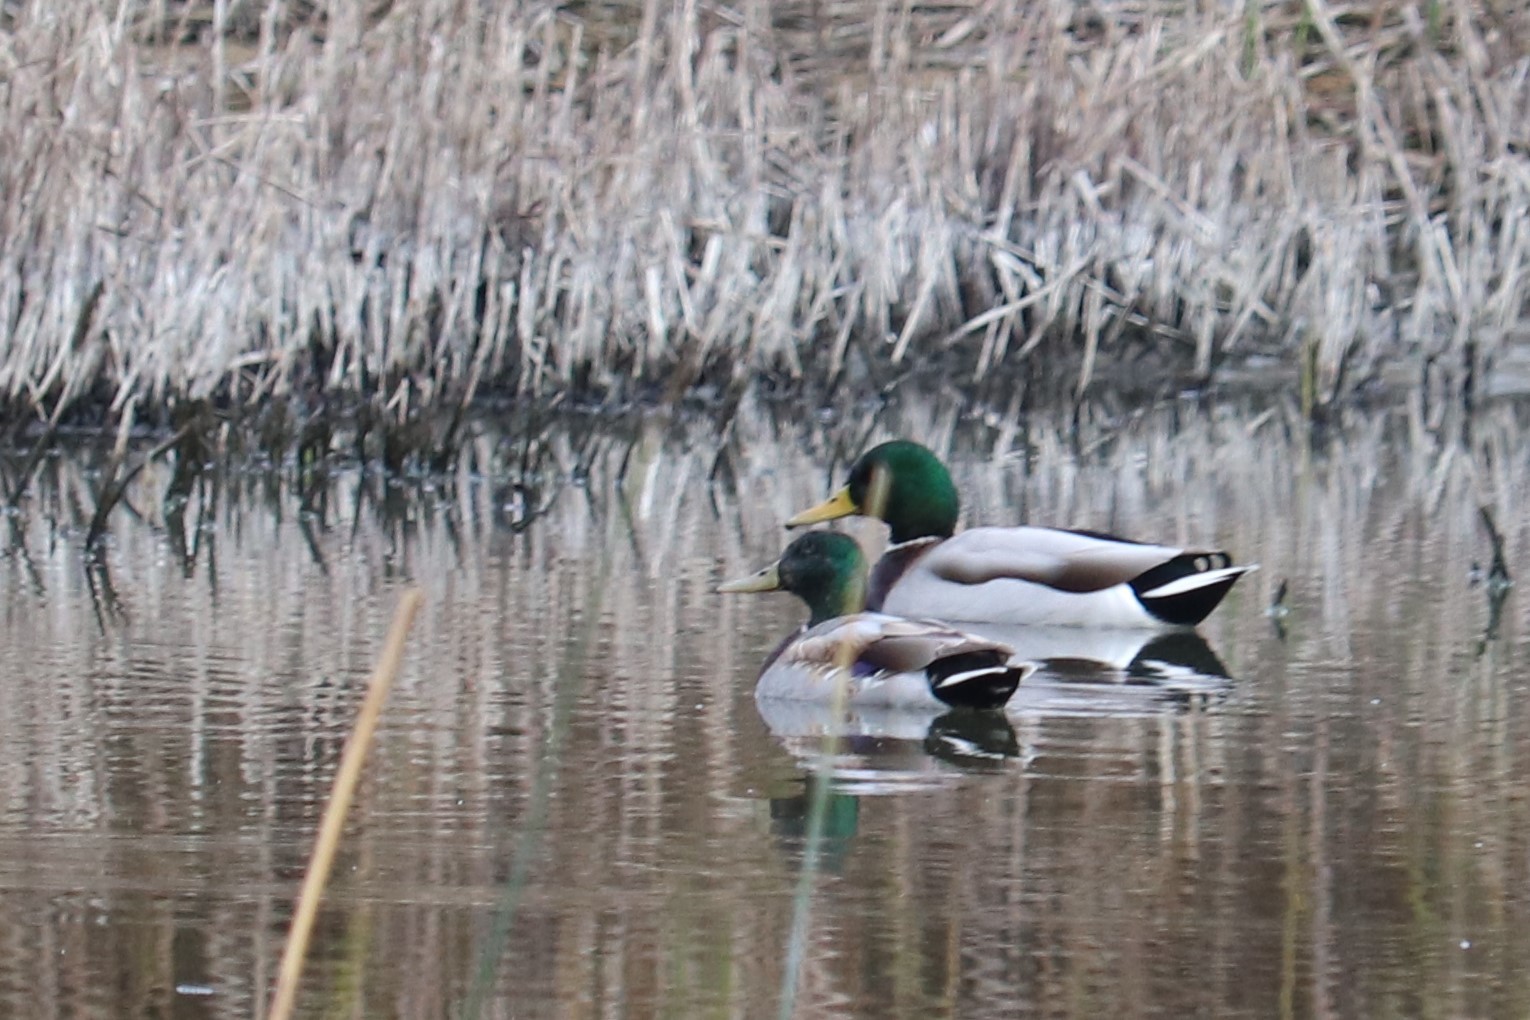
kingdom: Animalia
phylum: Chordata
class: Aves
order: Anseriformes
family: Anatidae
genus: Anas
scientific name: Anas platyrhynchos
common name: Mallard
